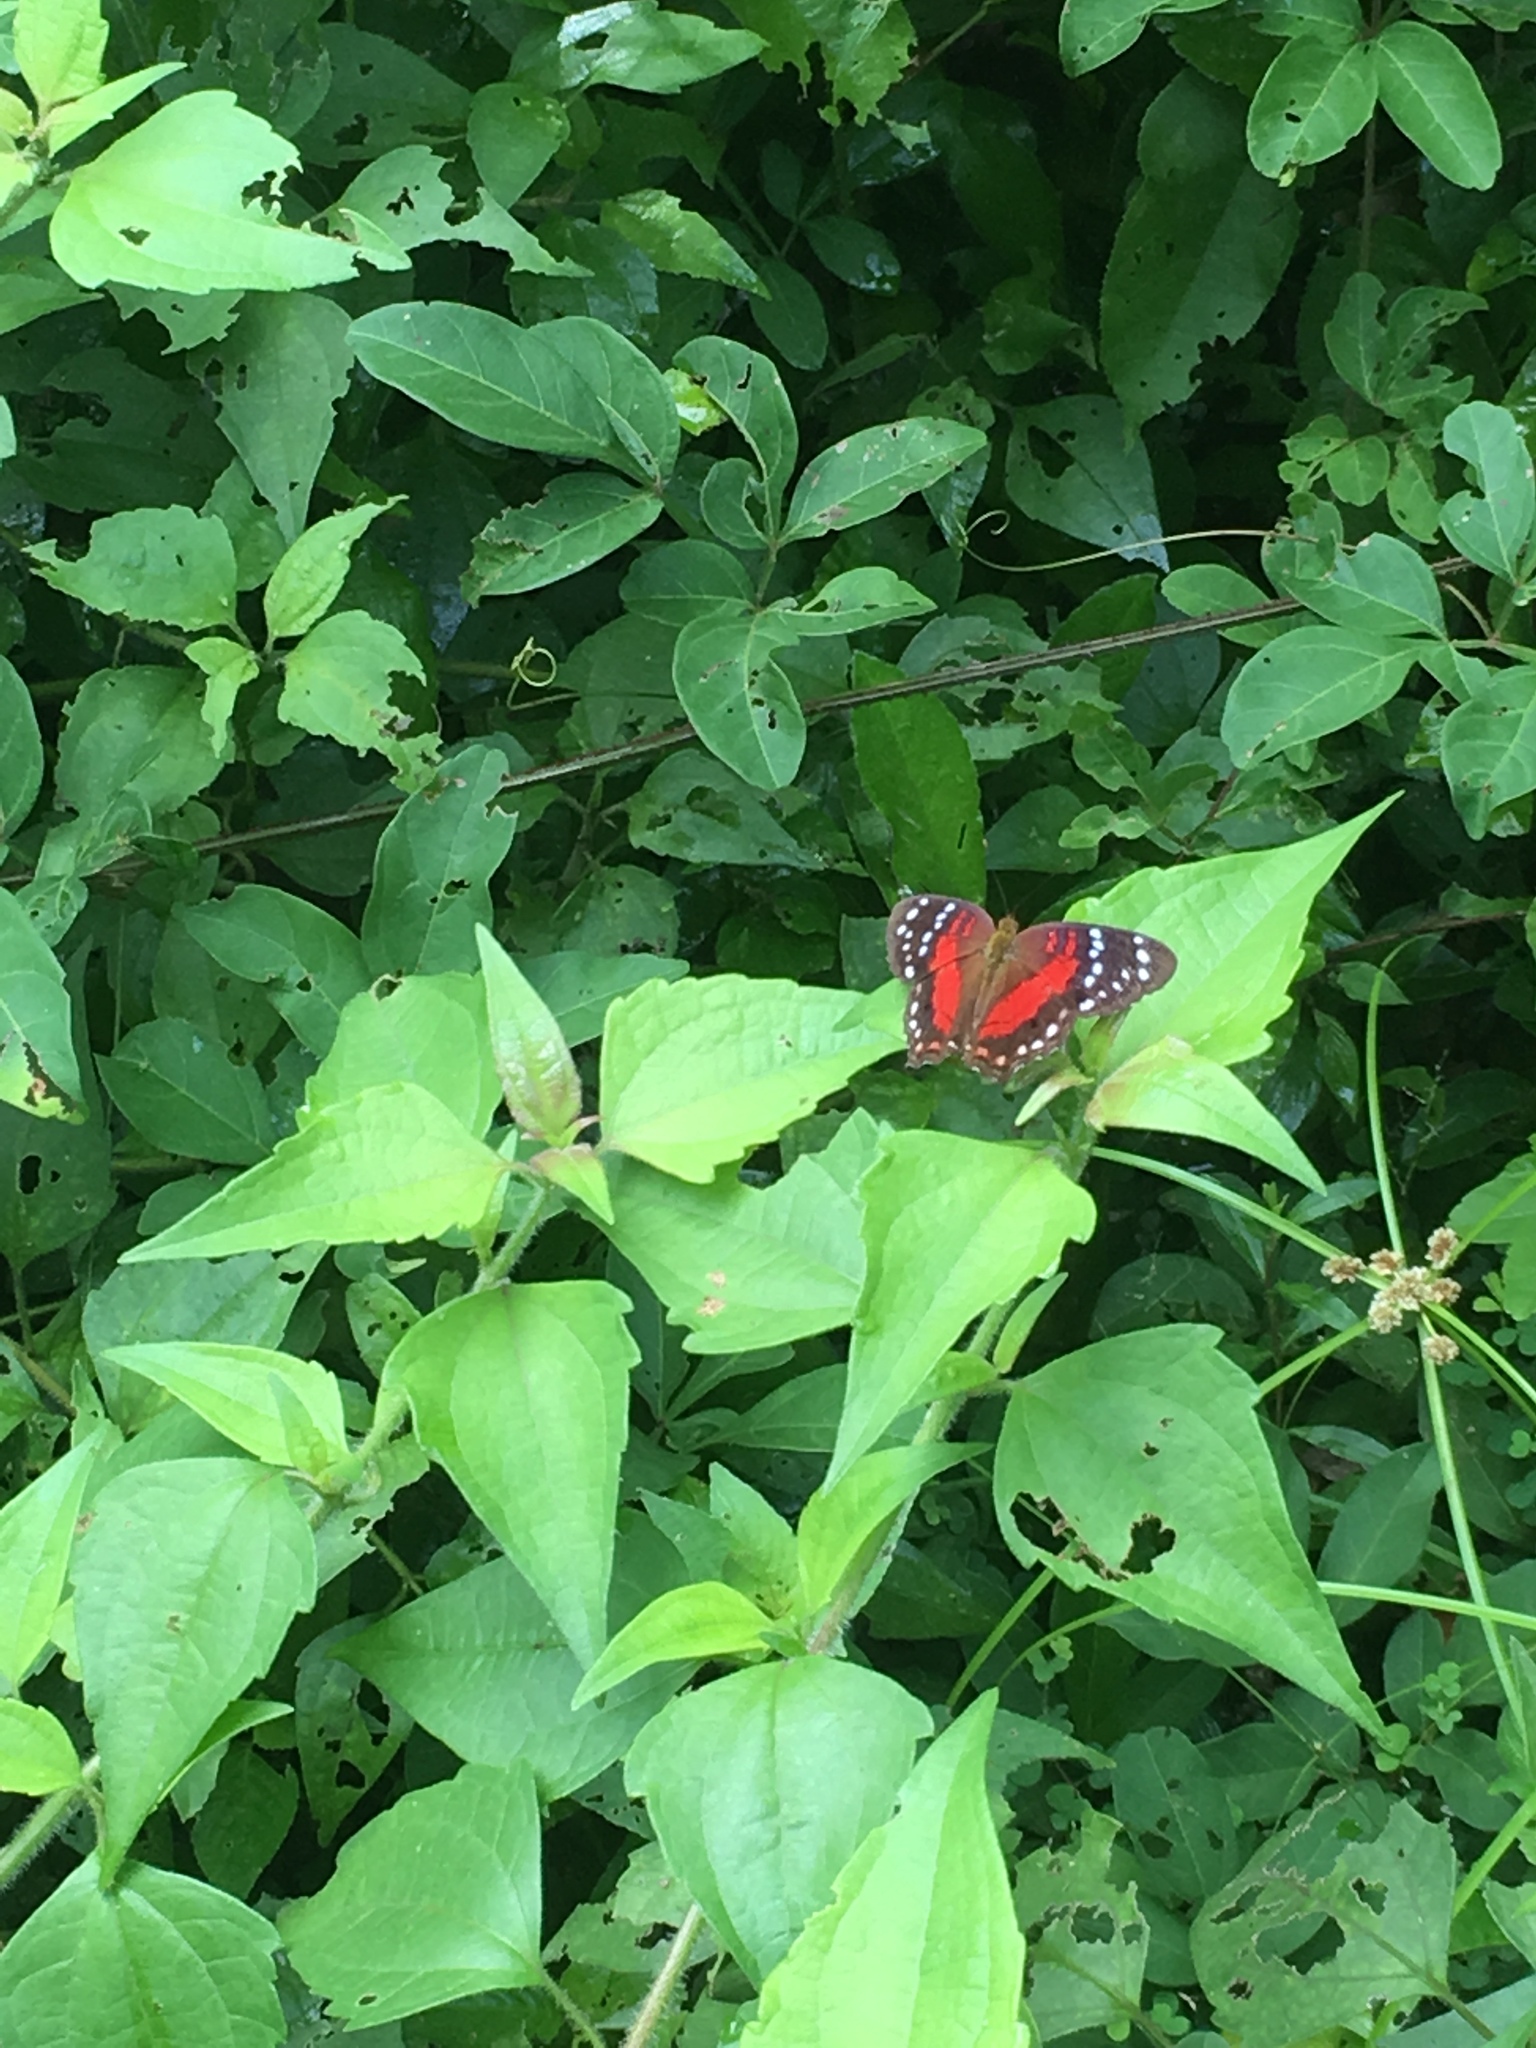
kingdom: Animalia
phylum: Arthropoda
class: Insecta
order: Lepidoptera
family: Nymphalidae
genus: Anartia
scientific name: Anartia amathea
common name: Red peacock
